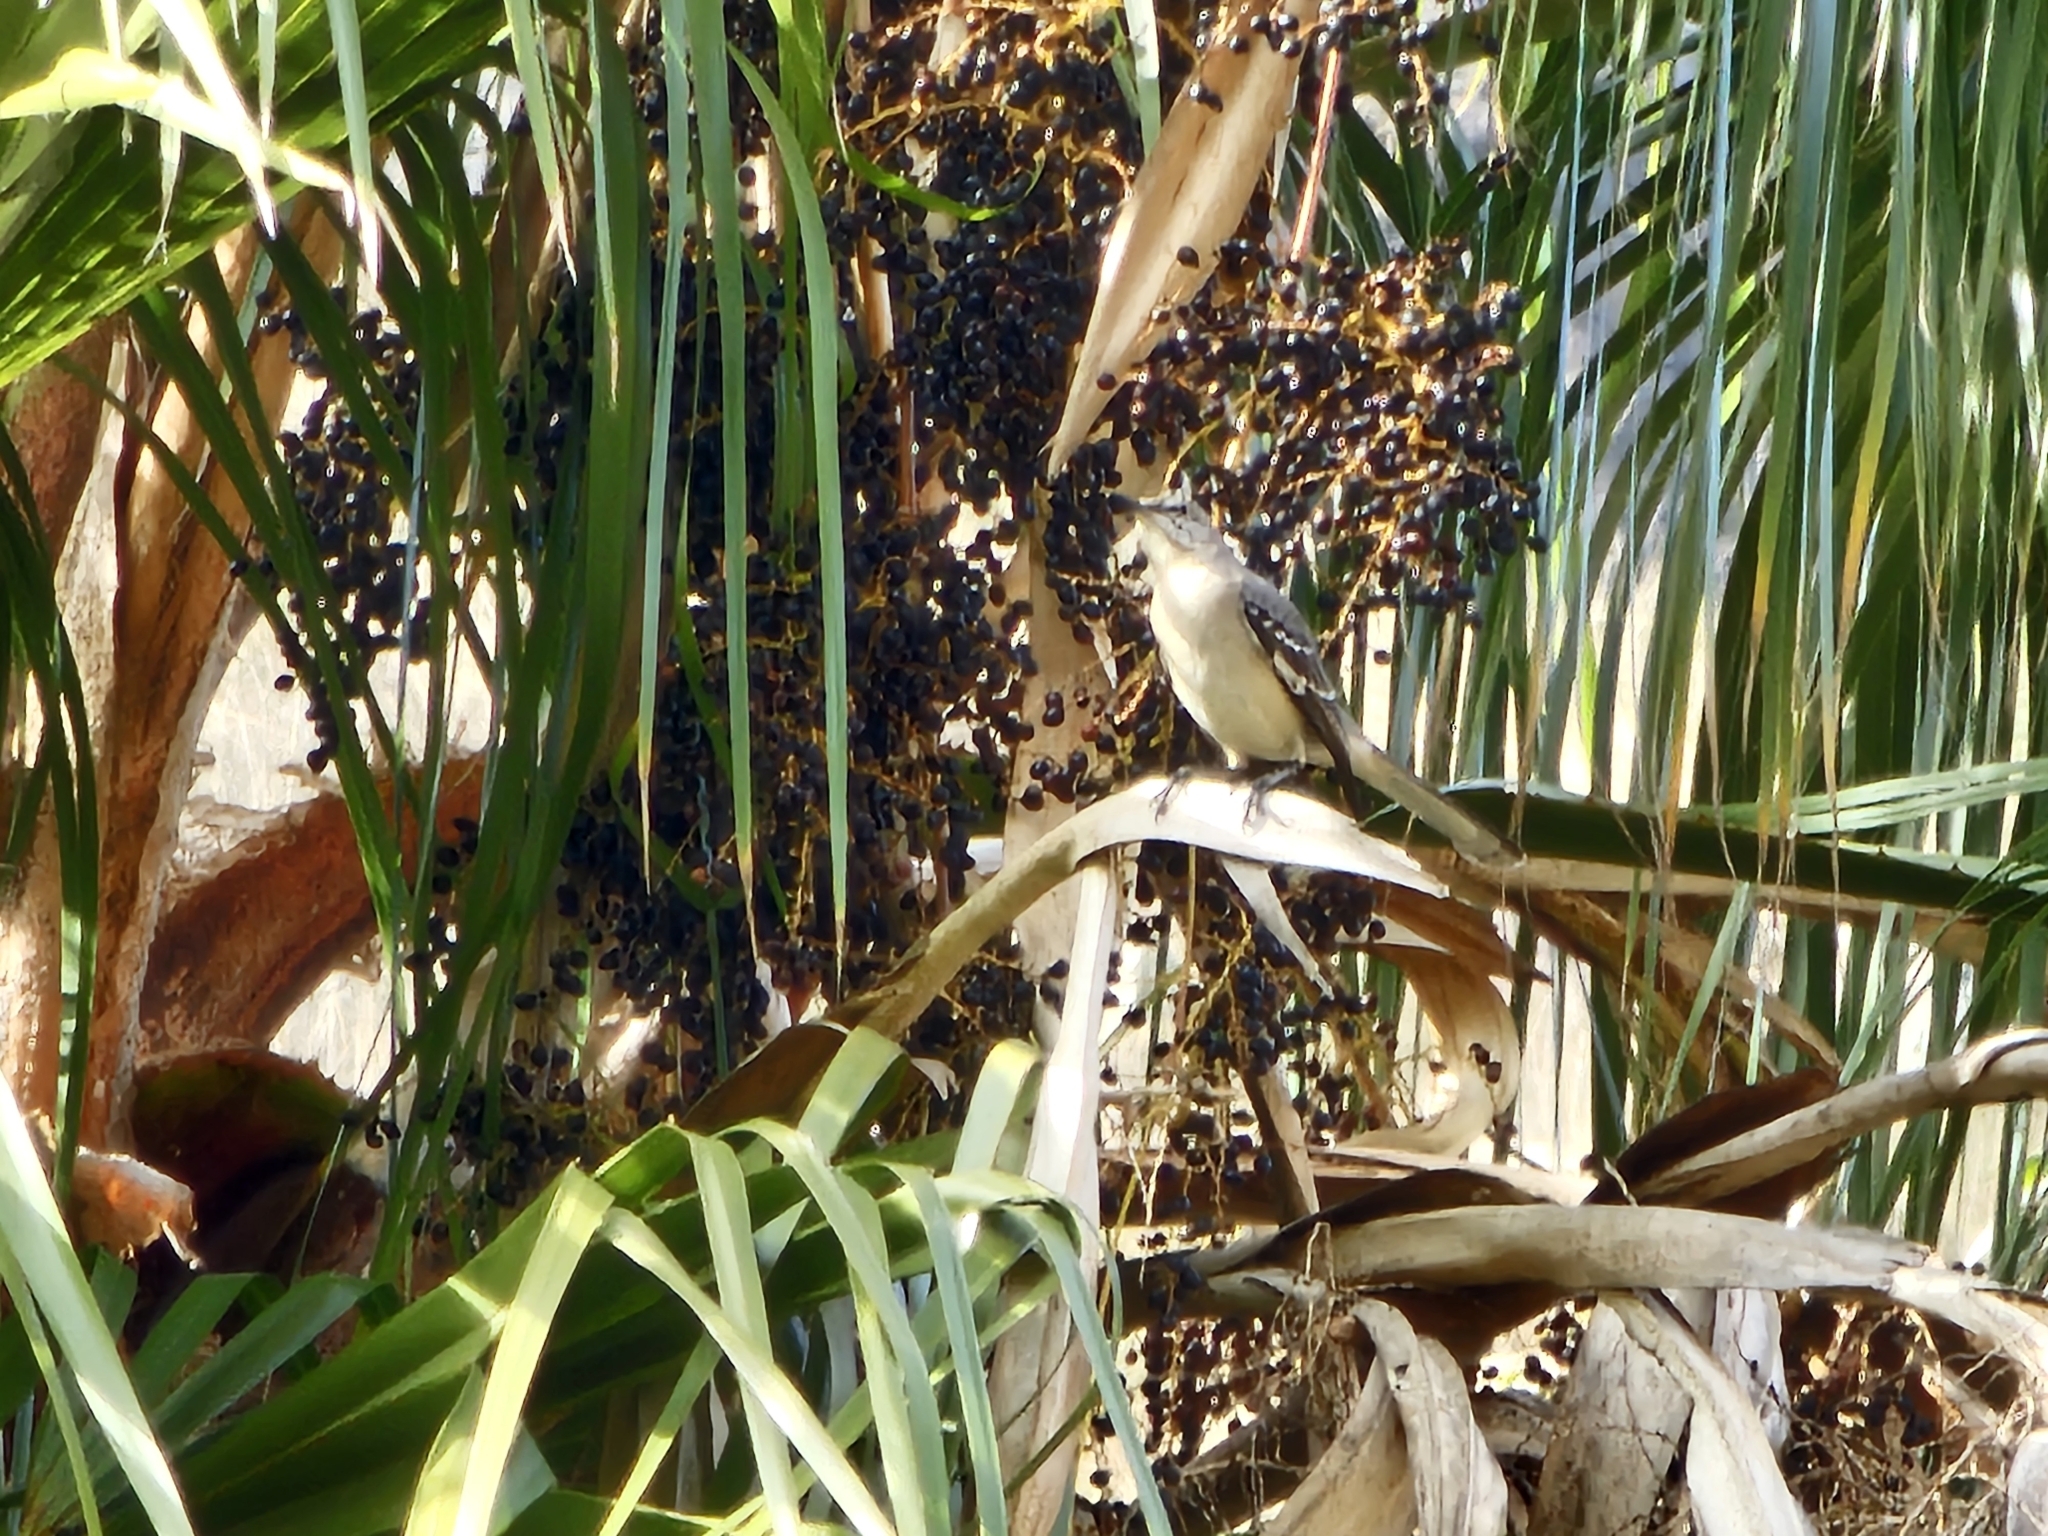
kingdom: Animalia
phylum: Chordata
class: Aves
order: Passeriformes
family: Mimidae
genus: Mimus
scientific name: Mimus polyglottos
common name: Northern mockingbird
